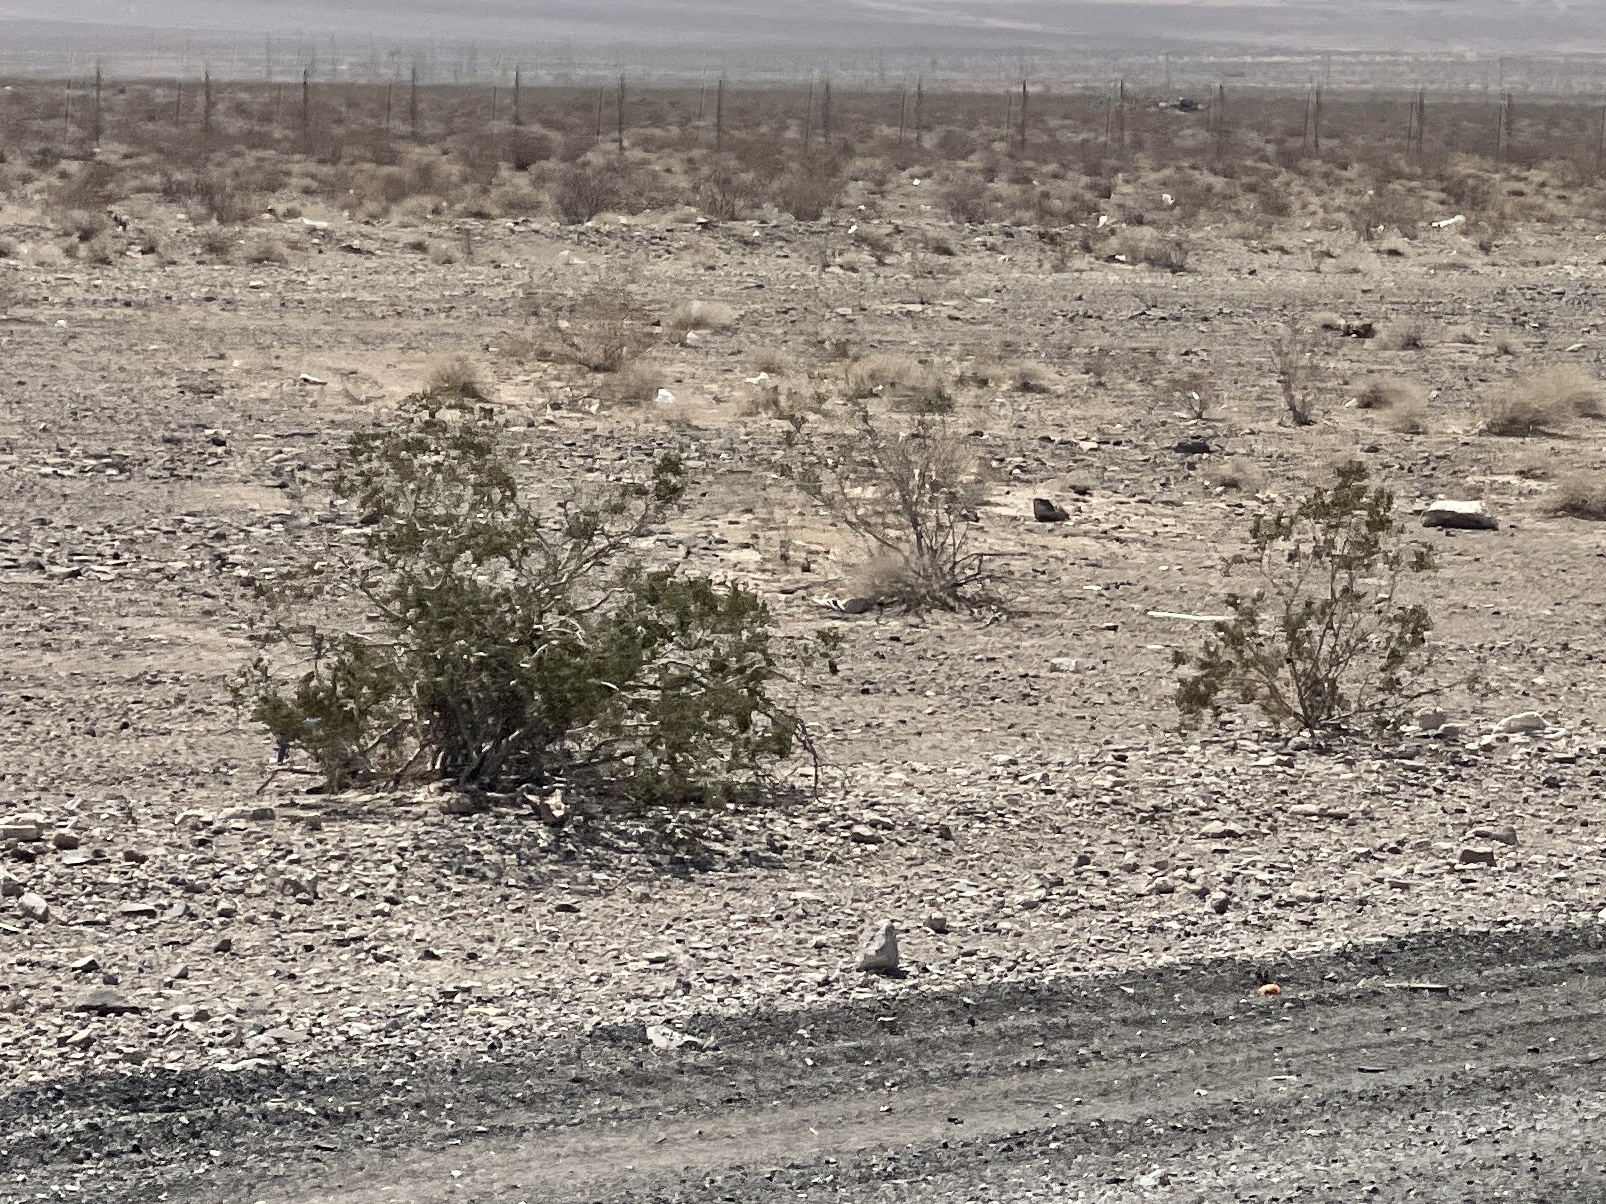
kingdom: Plantae
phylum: Tracheophyta
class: Magnoliopsida
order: Zygophyllales
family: Zygophyllaceae
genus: Larrea
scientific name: Larrea tridentata
